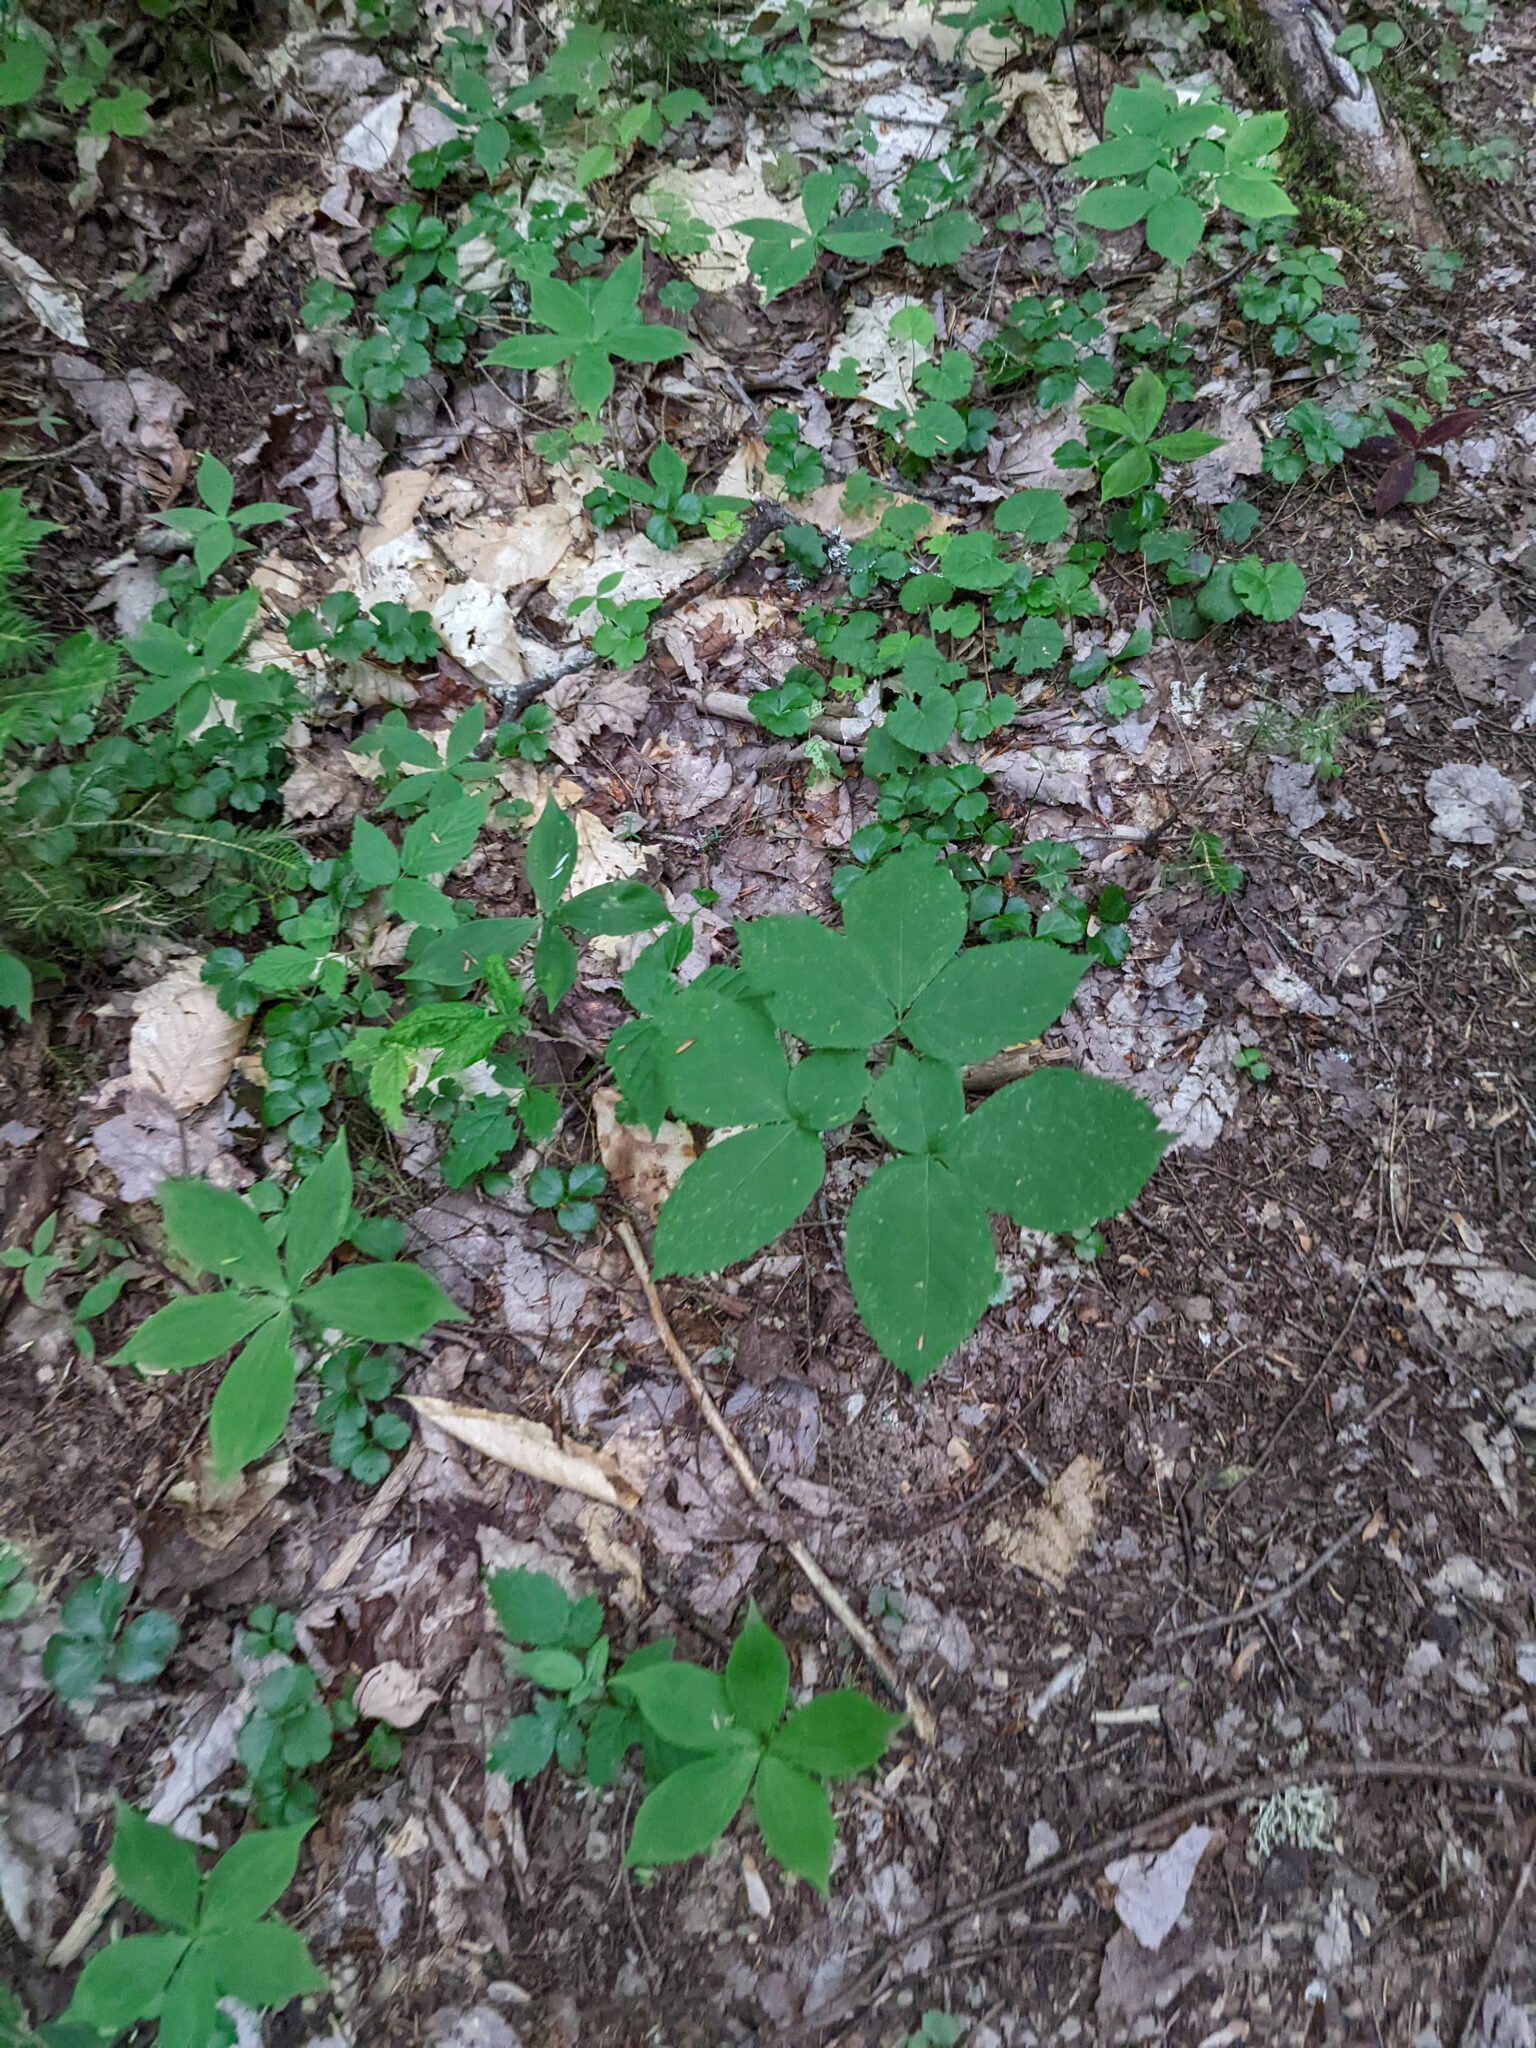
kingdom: Plantae
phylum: Tracheophyta
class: Magnoliopsida
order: Apiales
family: Araliaceae
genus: Aralia
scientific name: Aralia nudicaulis
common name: Wild sarsaparilla
